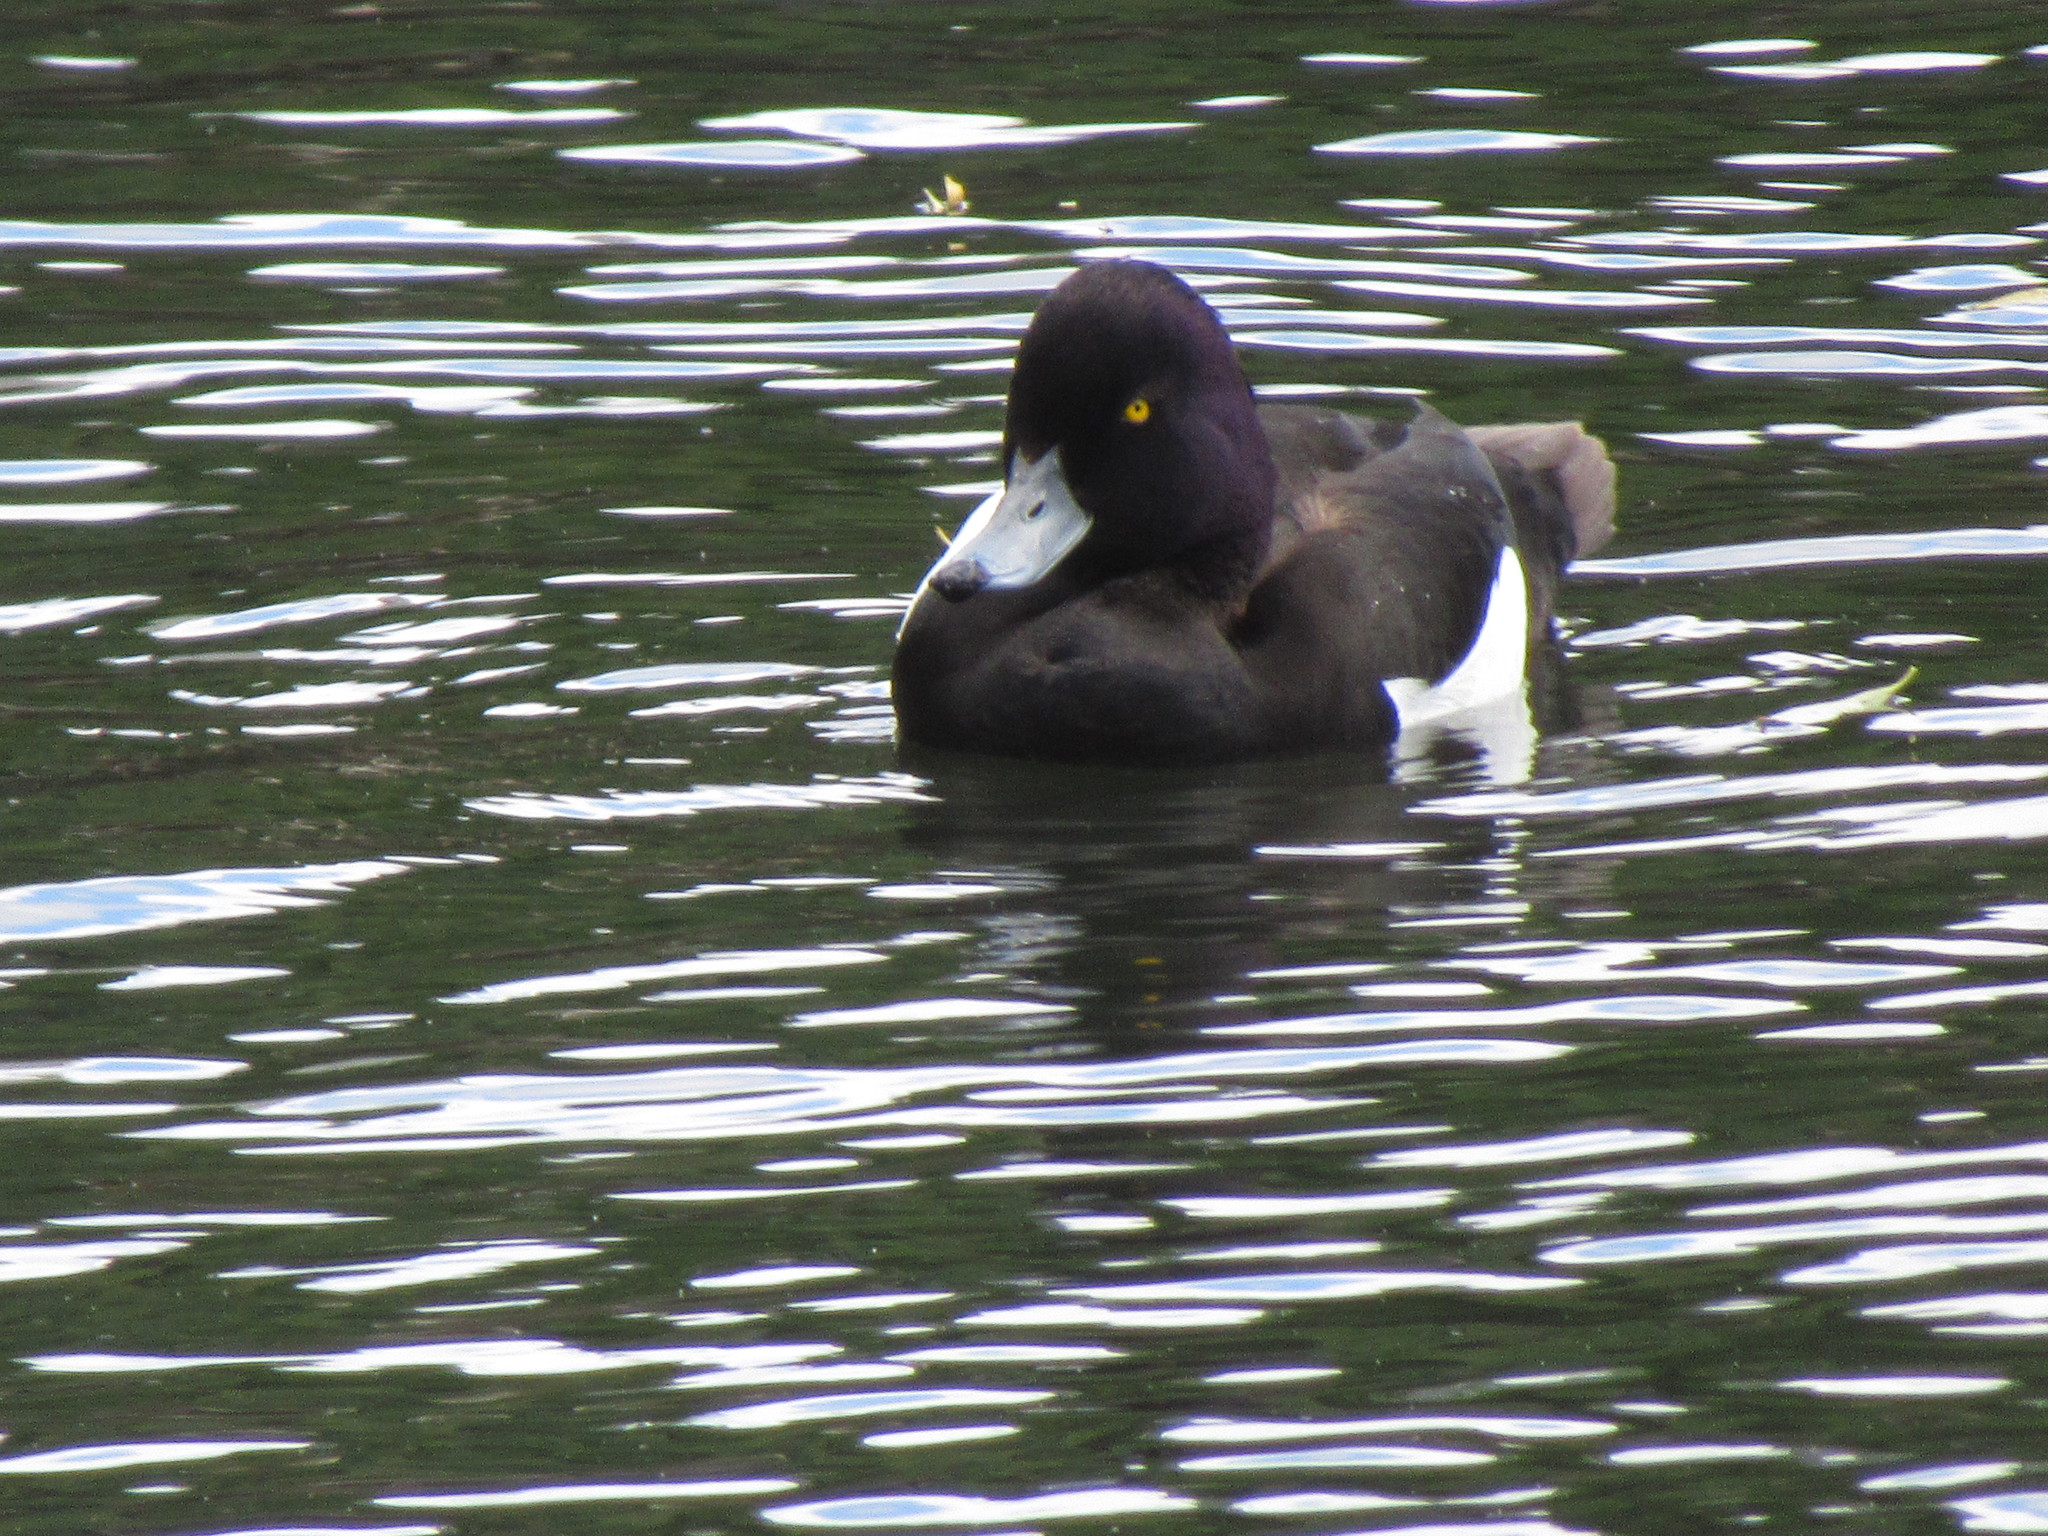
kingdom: Animalia
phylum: Chordata
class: Aves
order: Anseriformes
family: Anatidae
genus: Aythya
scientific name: Aythya fuligula
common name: Tufted duck
